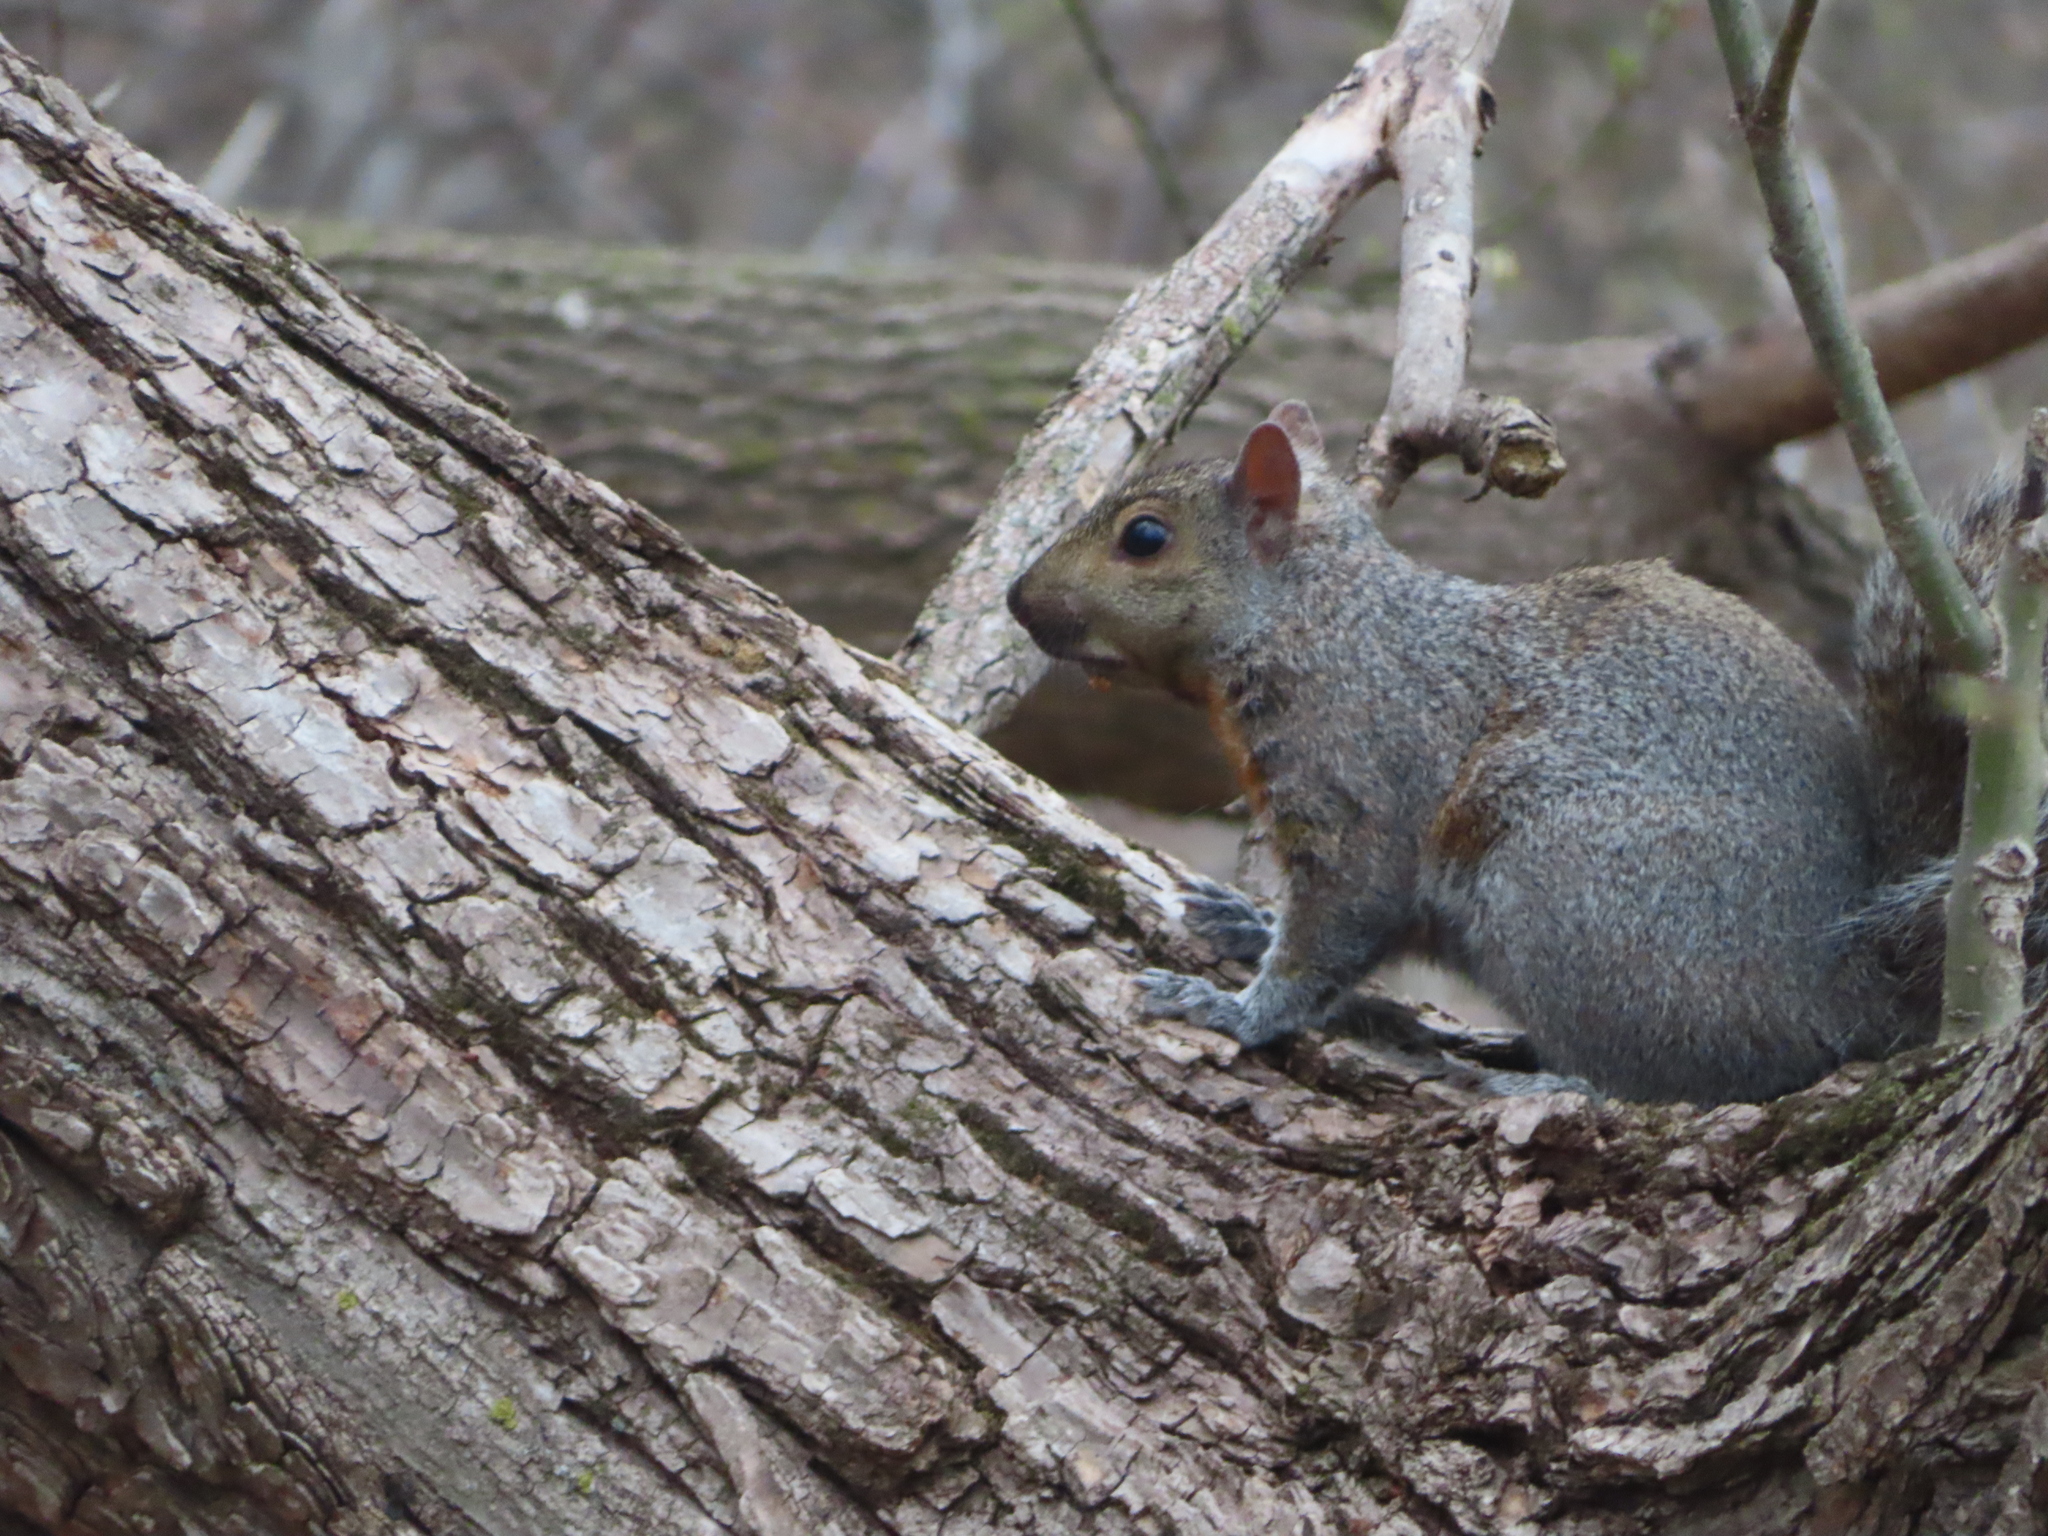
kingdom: Animalia
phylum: Chordata
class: Mammalia
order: Rodentia
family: Sciuridae
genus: Sciurus
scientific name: Sciurus carolinensis
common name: Eastern gray squirrel
